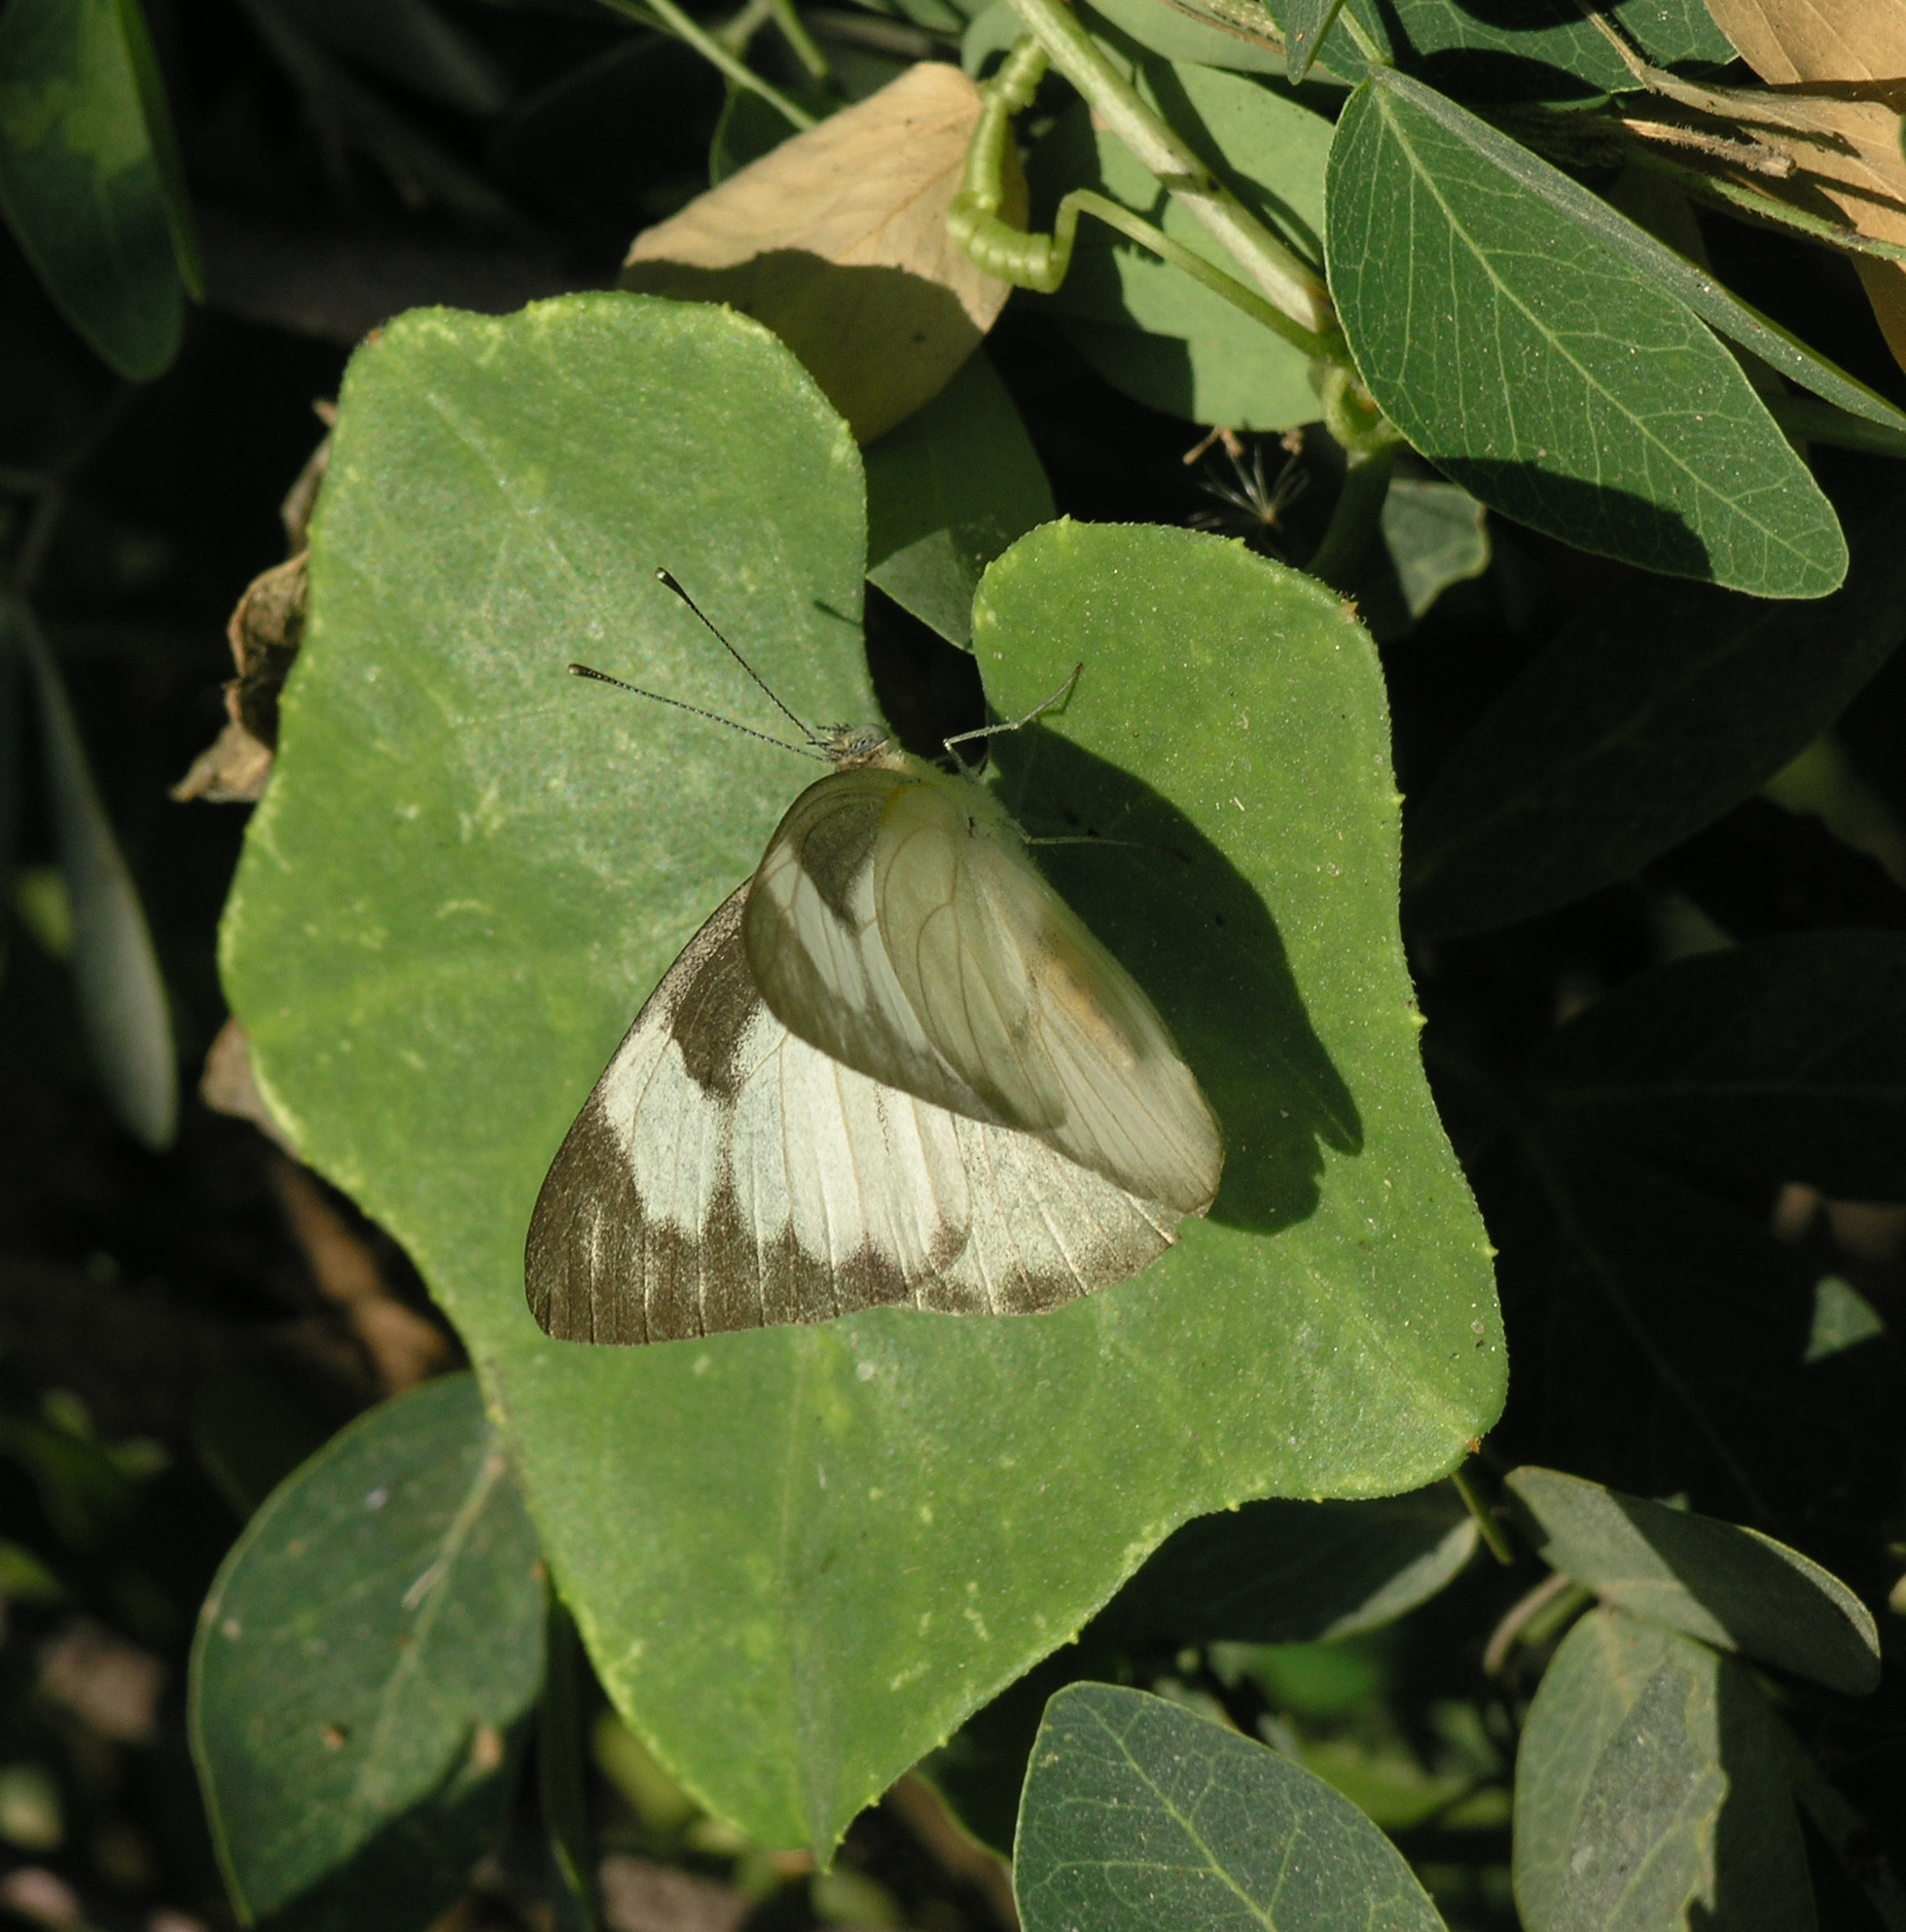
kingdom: Animalia
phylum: Arthropoda
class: Insecta
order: Lepidoptera
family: Pieridae
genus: Appias
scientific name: Appias libythea
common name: Striped albatross
